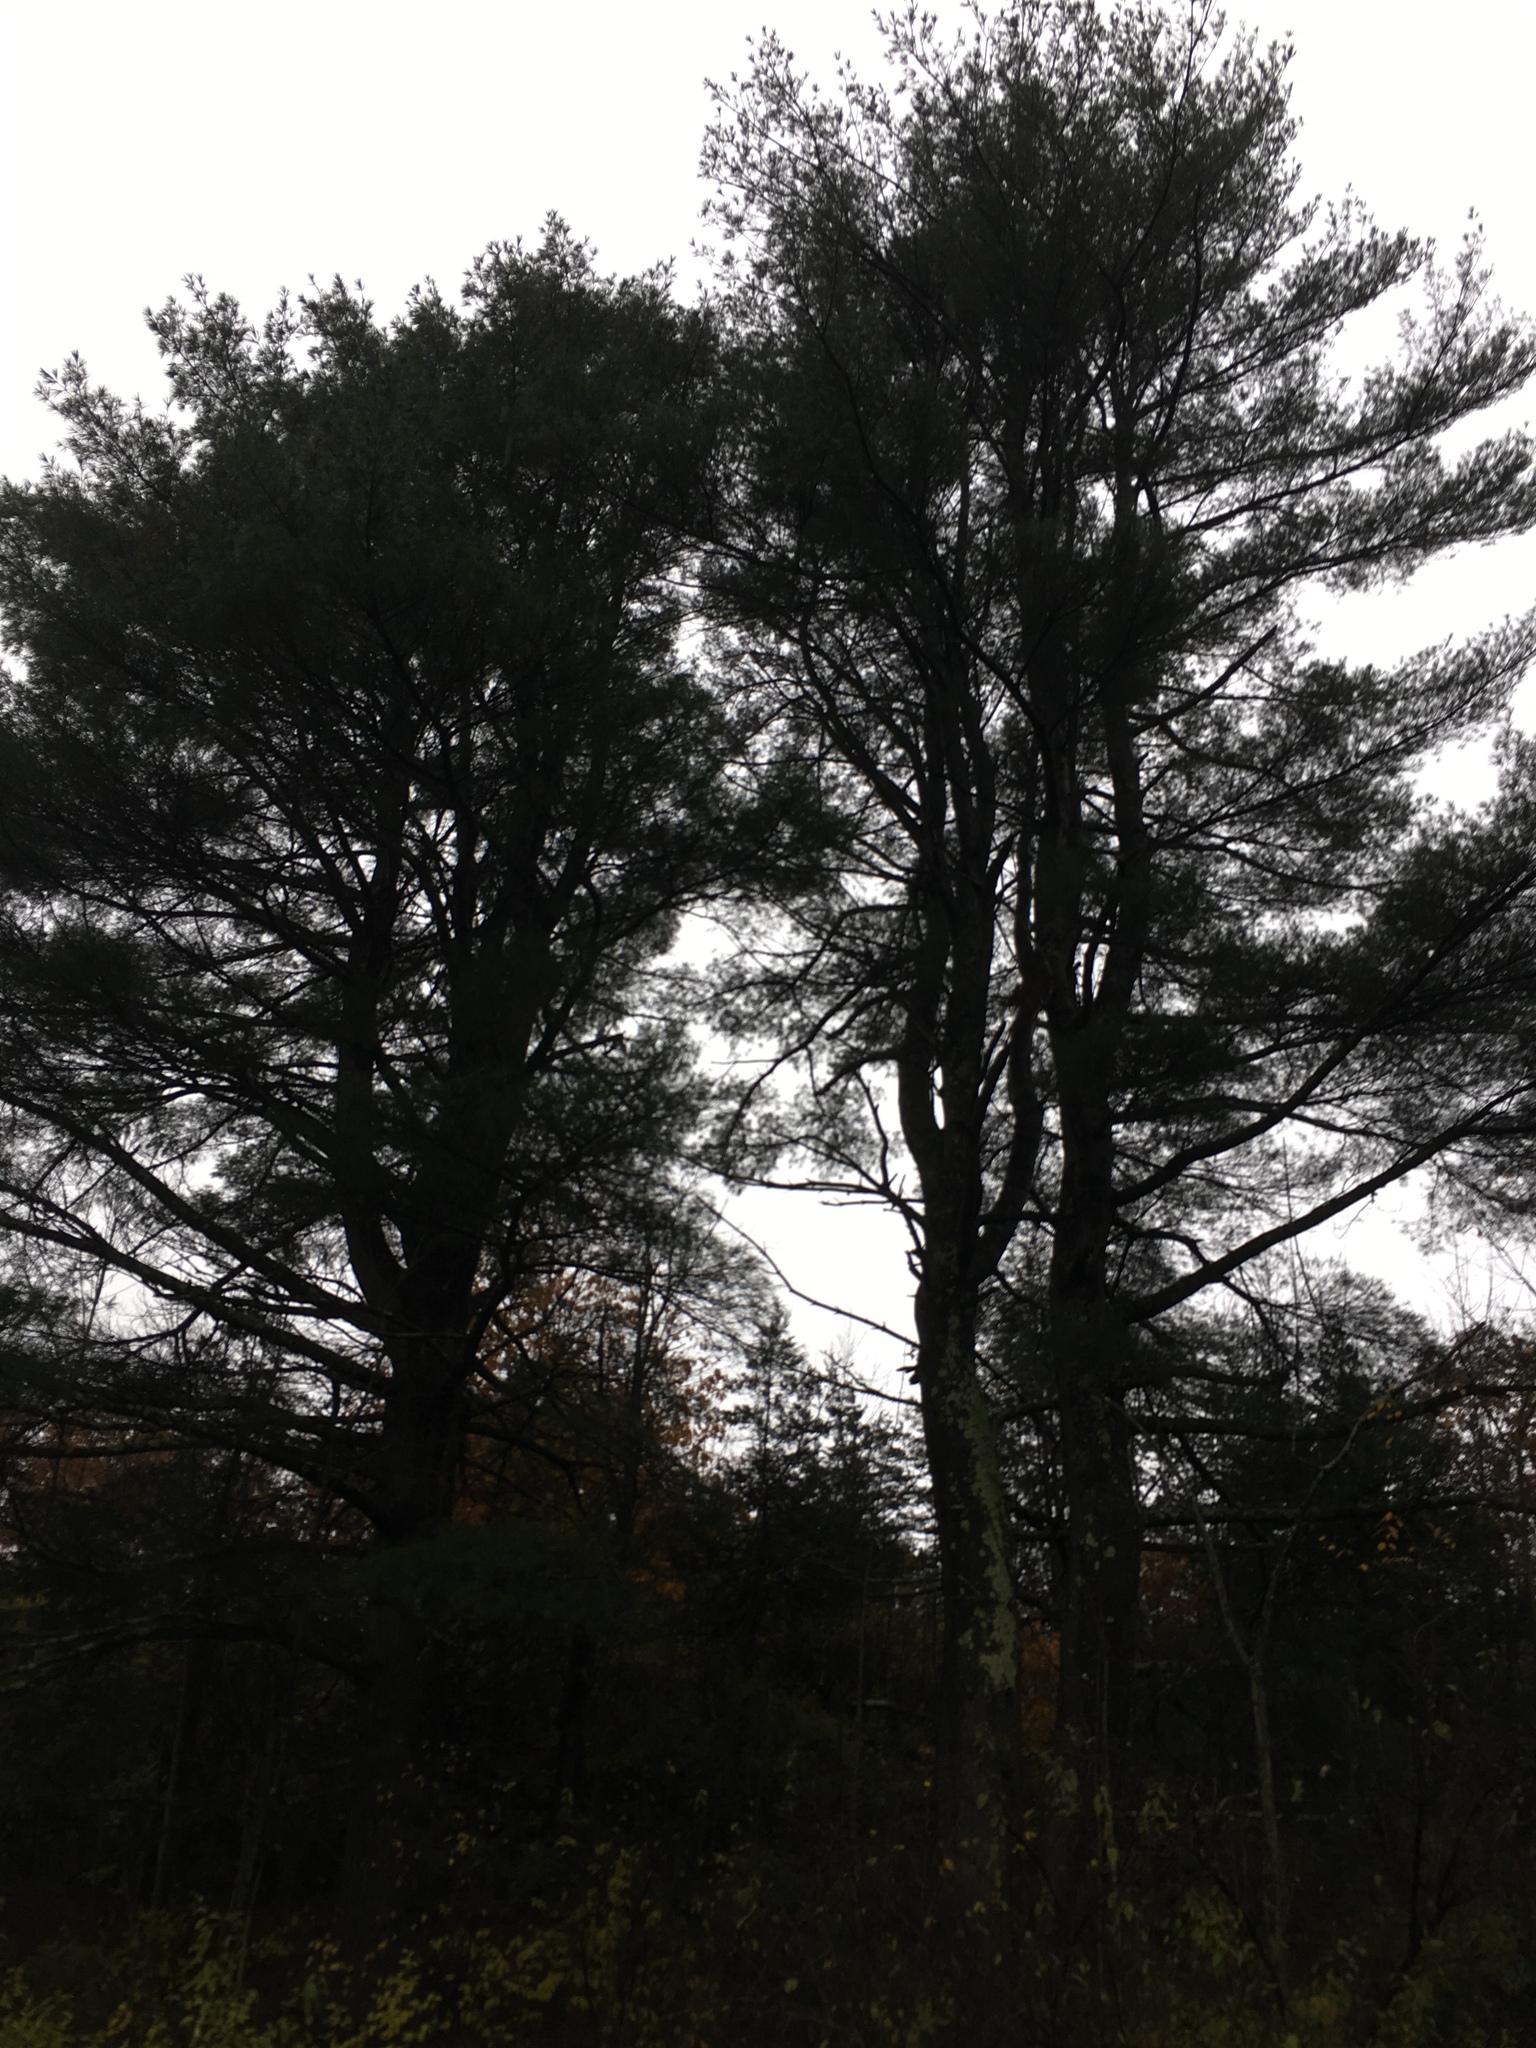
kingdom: Plantae
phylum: Tracheophyta
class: Pinopsida
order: Pinales
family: Pinaceae
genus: Pinus
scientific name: Pinus strobus
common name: Weymouth pine
